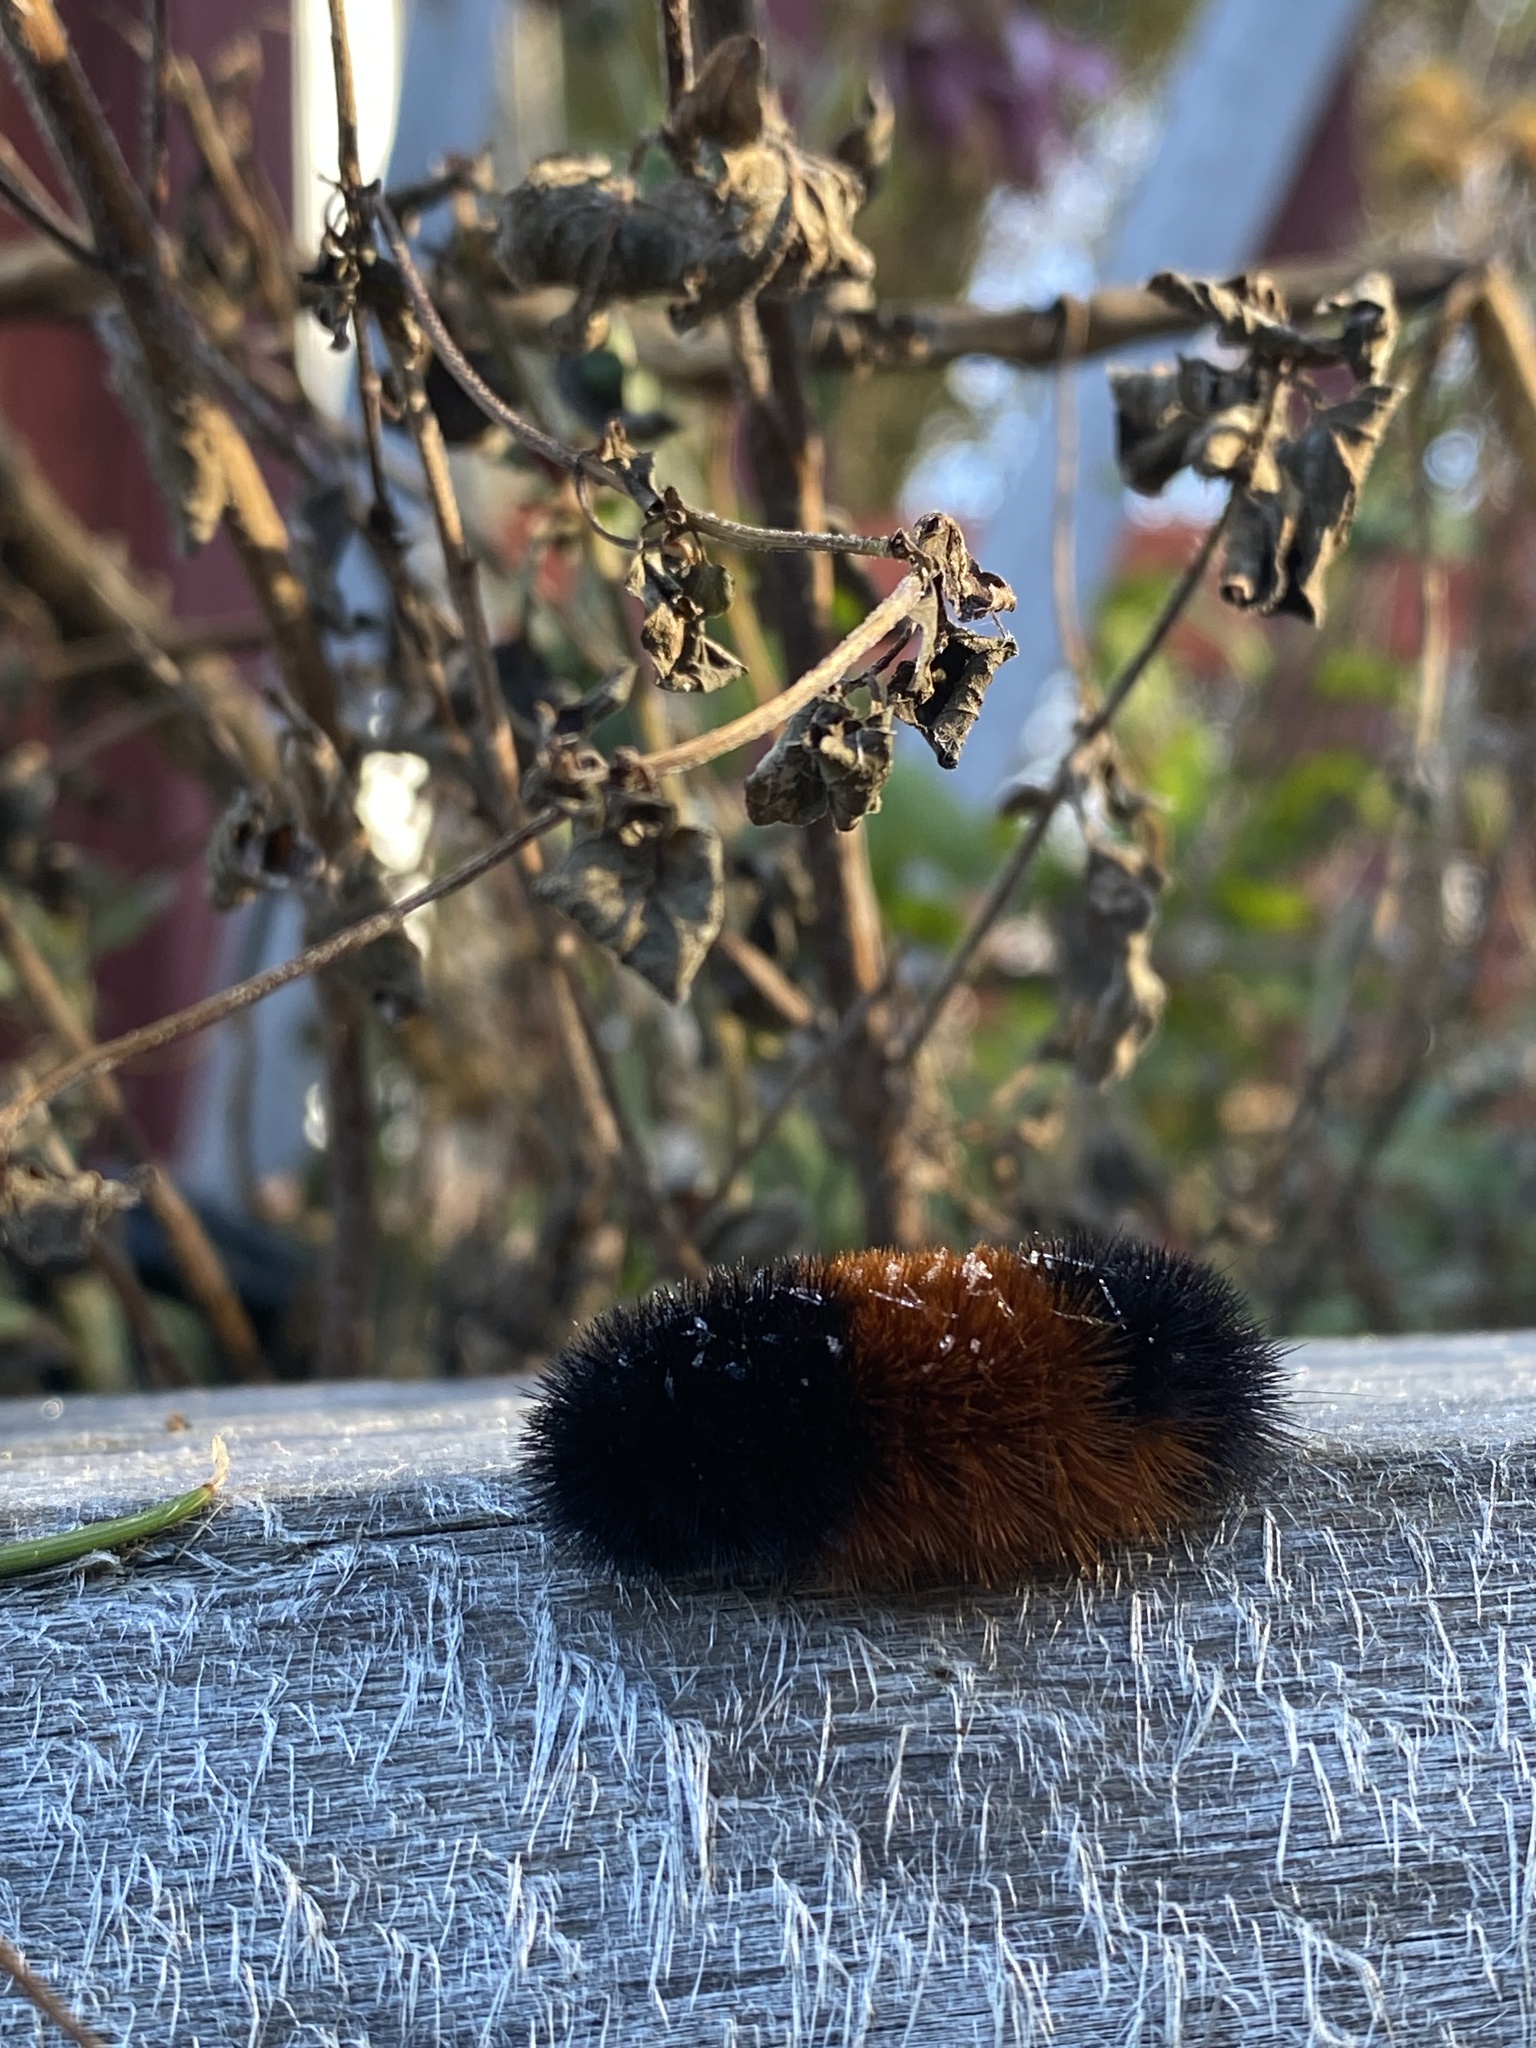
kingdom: Animalia
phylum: Arthropoda
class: Insecta
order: Lepidoptera
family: Erebidae
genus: Pyrrharctia
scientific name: Pyrrharctia isabella
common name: Isabella tiger moth
